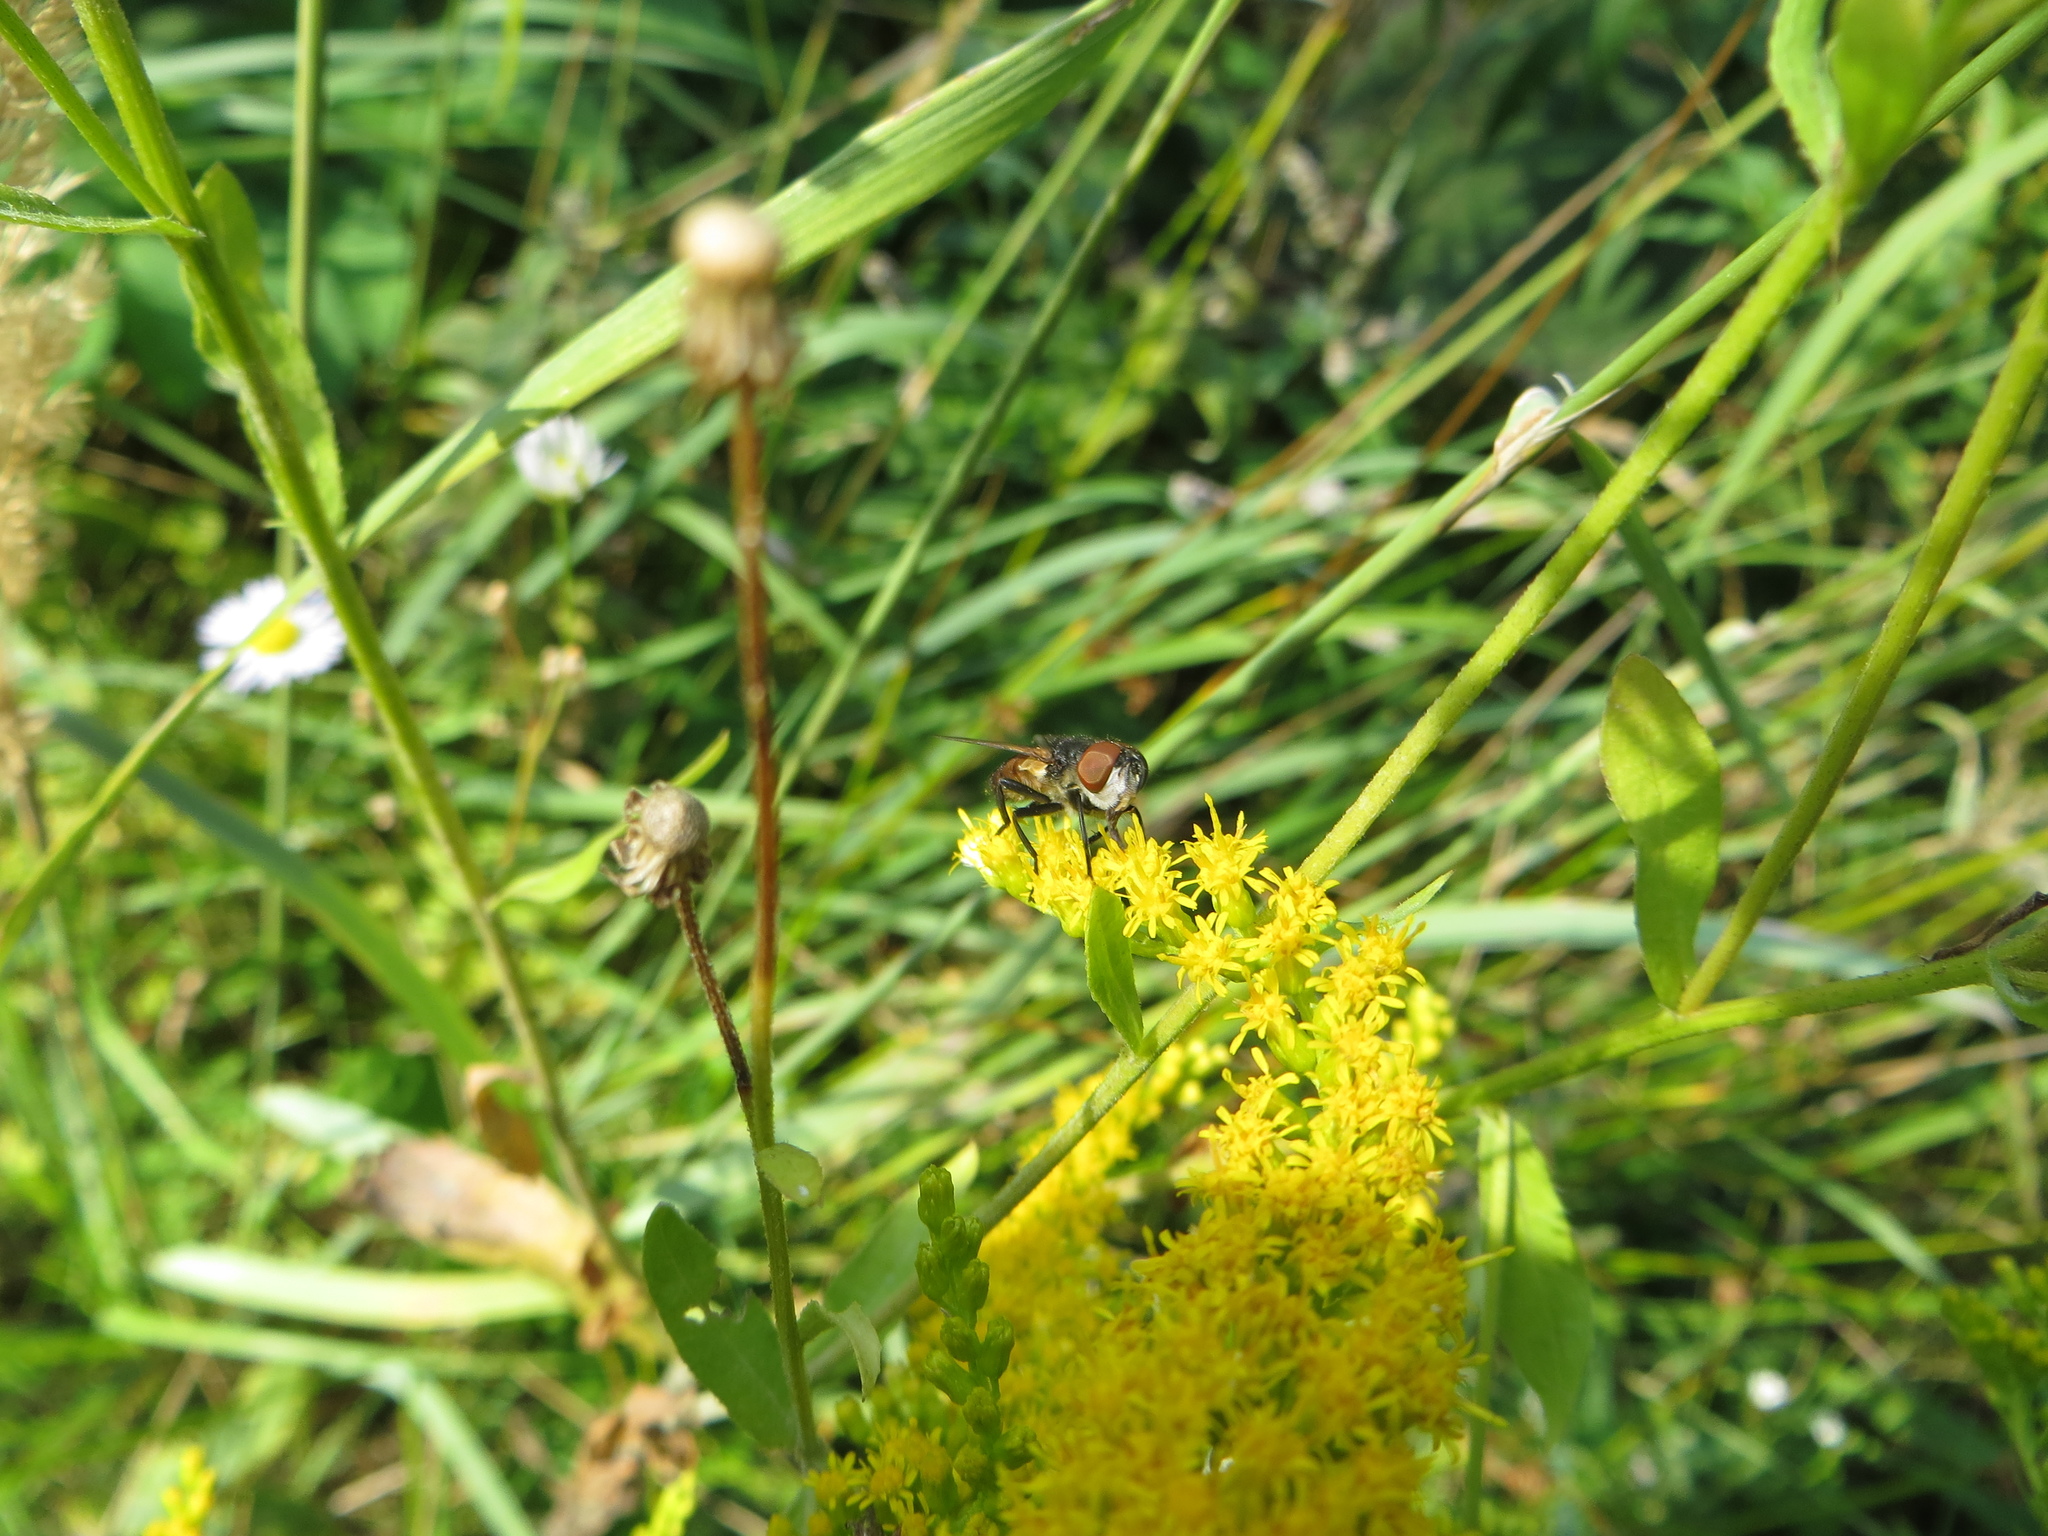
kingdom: Animalia
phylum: Arthropoda
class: Insecta
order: Diptera
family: Tachinidae
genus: Phasia
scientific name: Phasia aurigera
